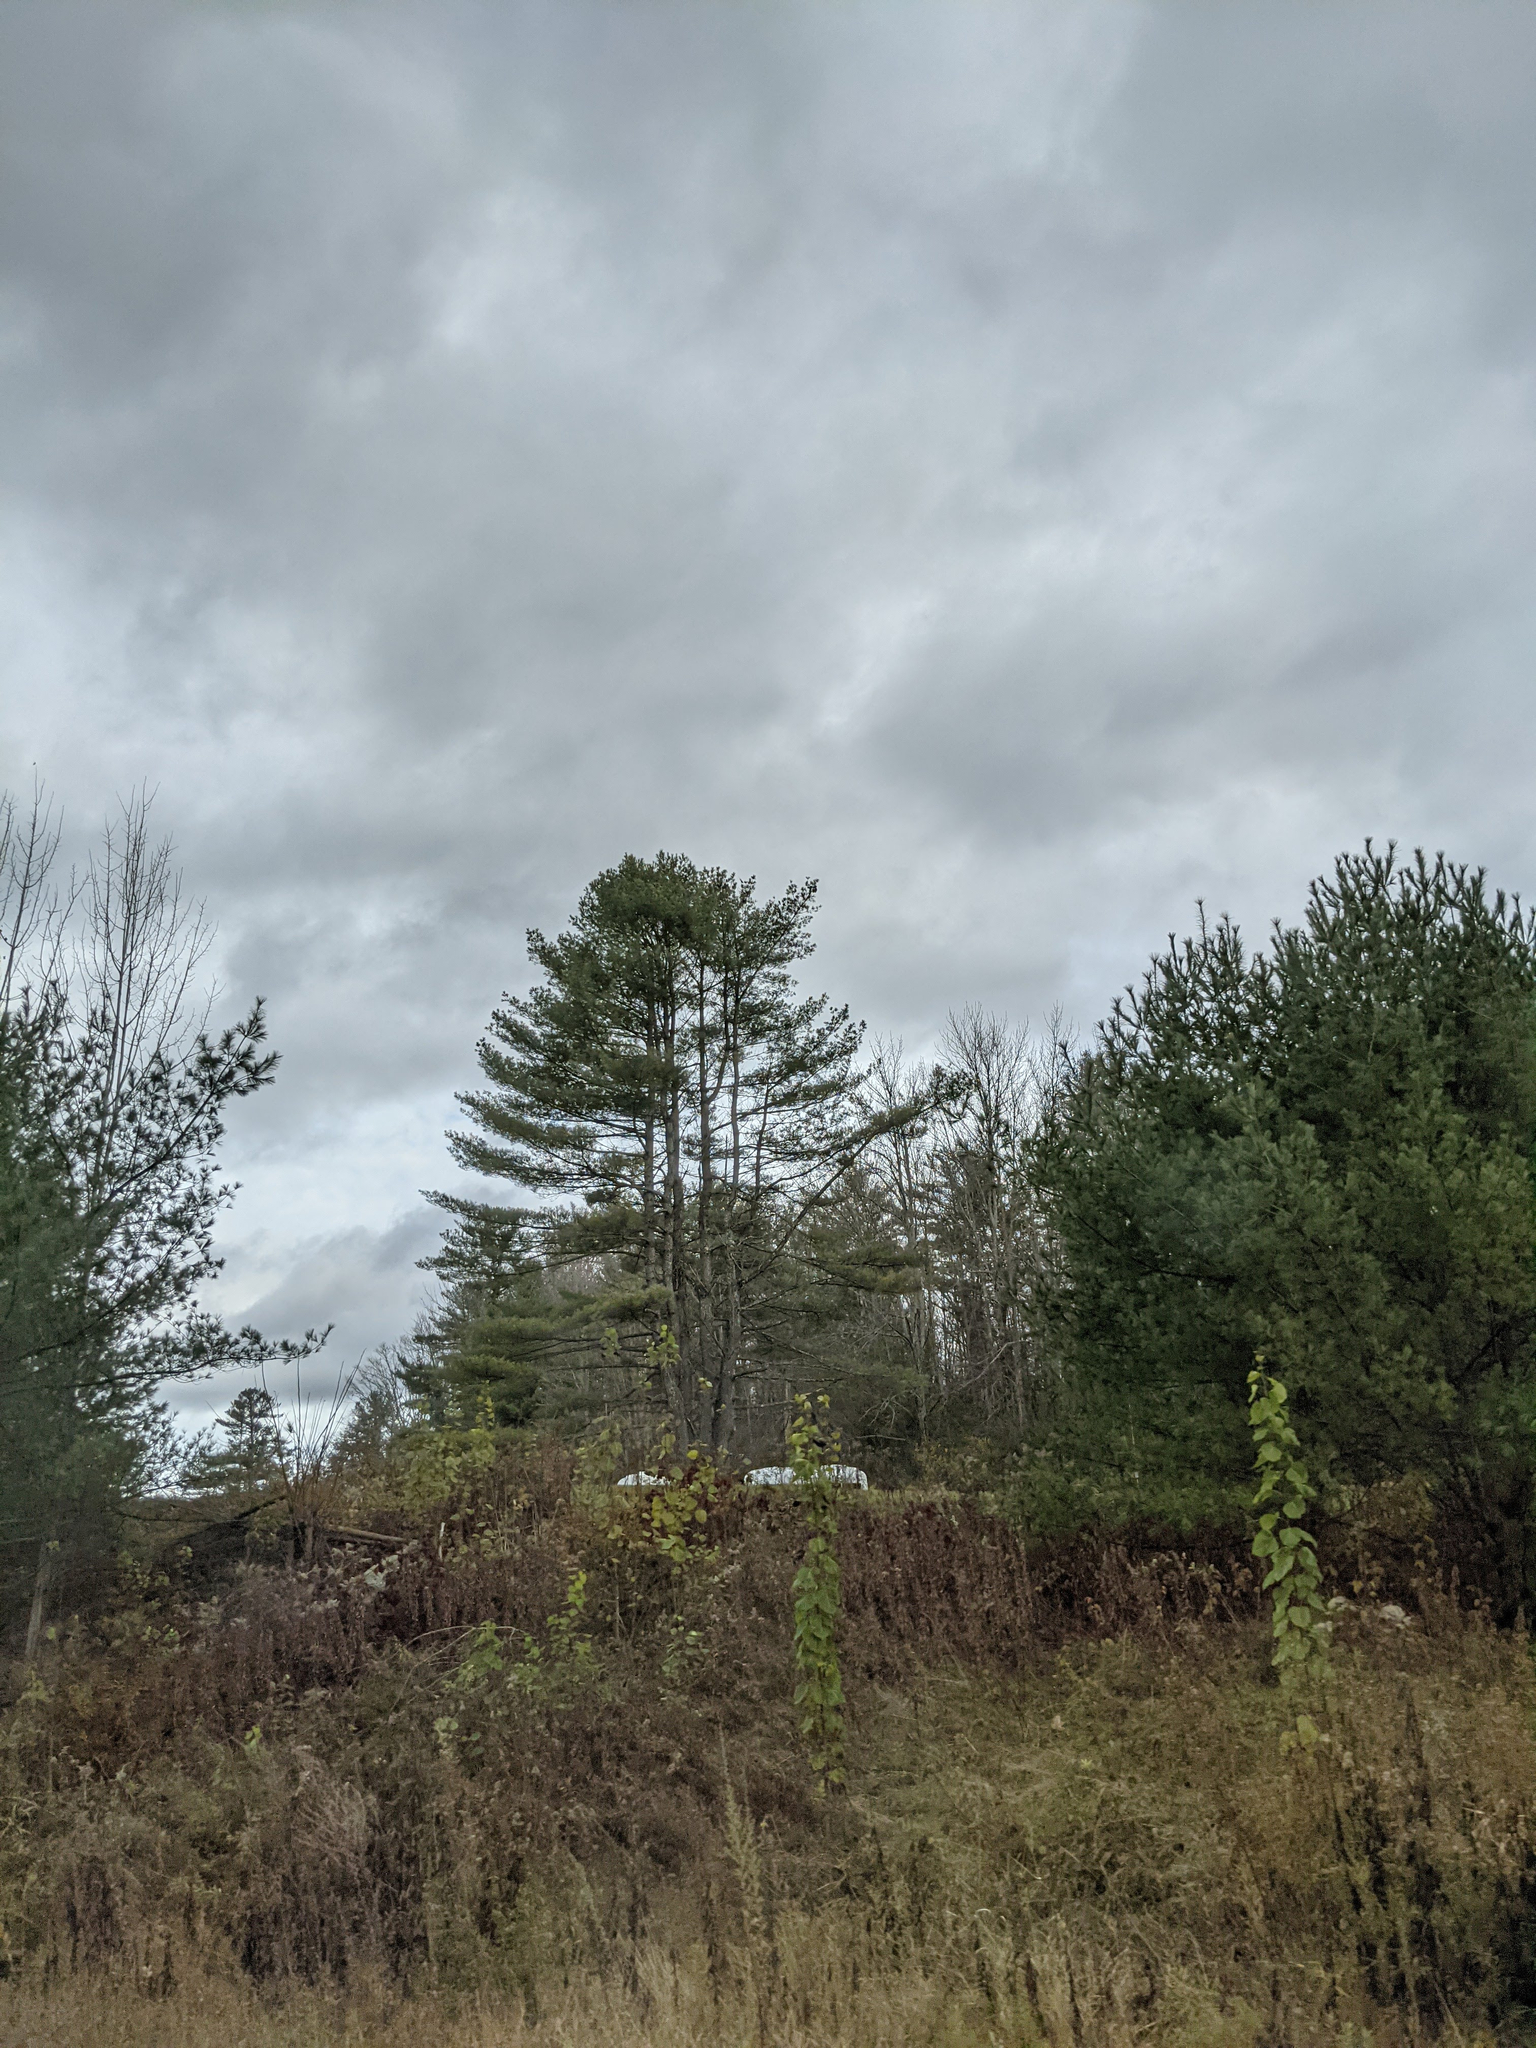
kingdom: Plantae
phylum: Tracheophyta
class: Pinopsida
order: Pinales
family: Pinaceae
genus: Pinus
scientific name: Pinus strobus
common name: Weymouth pine
